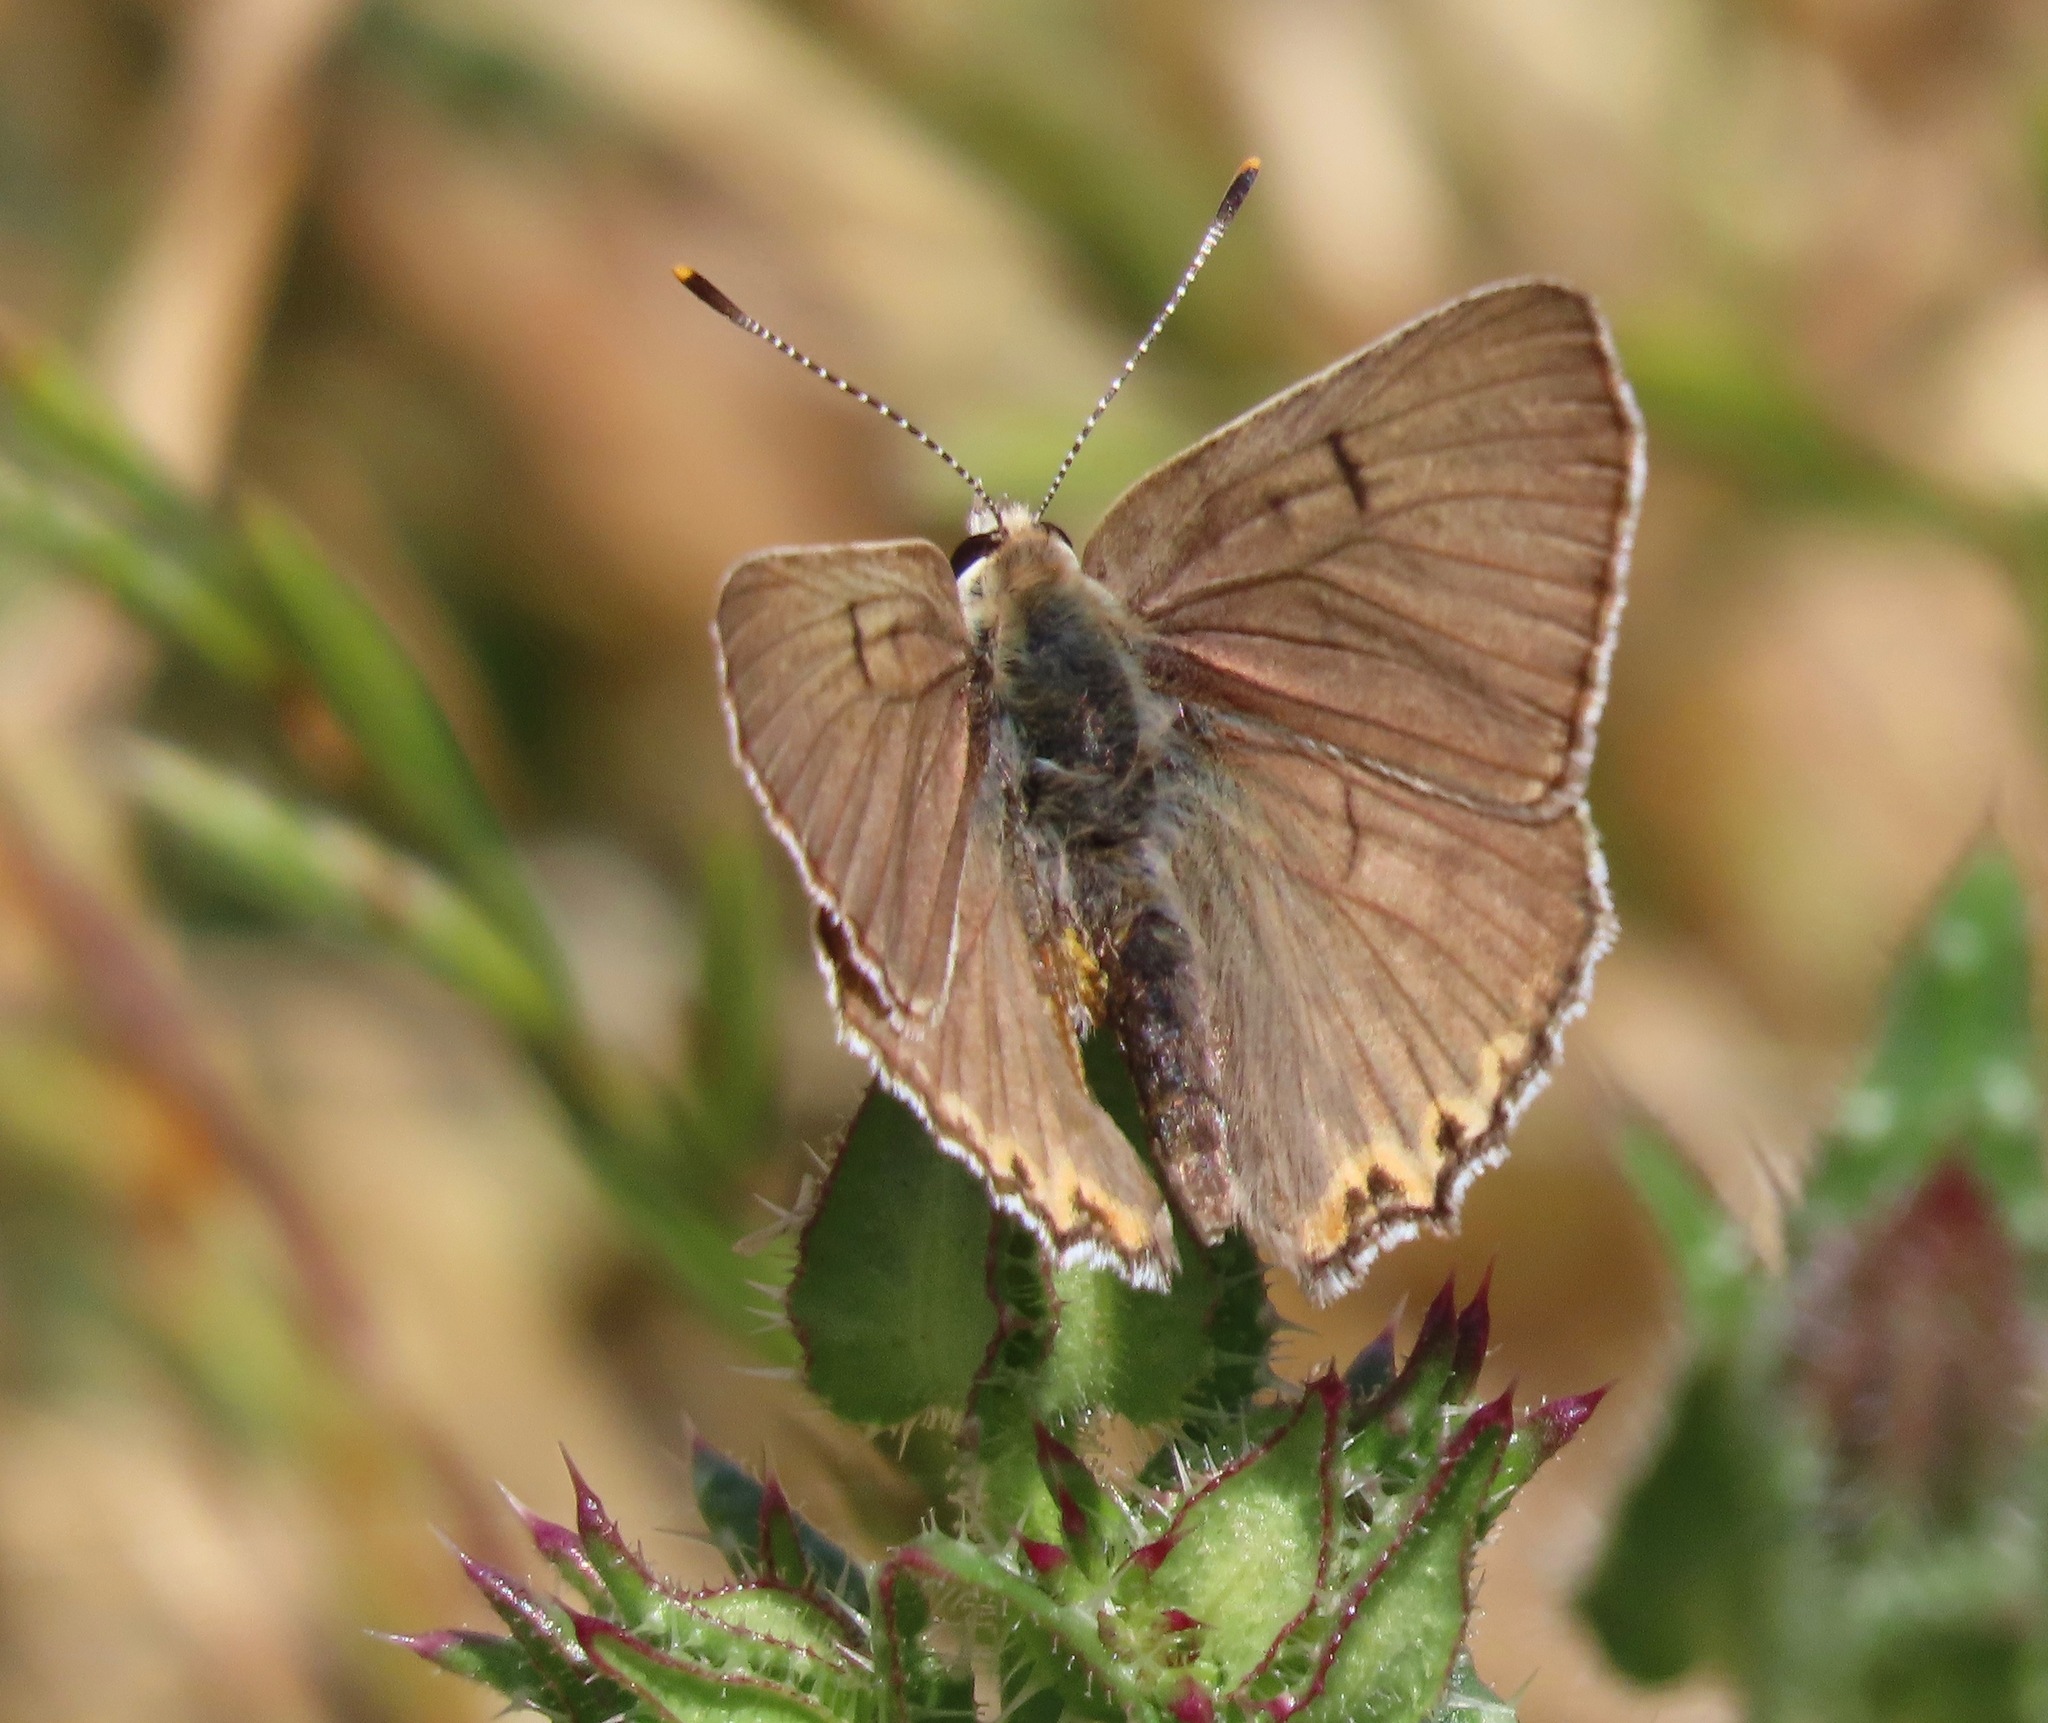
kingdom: Animalia
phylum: Arthropoda
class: Insecta
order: Lepidoptera
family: Lycaenidae
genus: Tharsalea
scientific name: Tharsalea xanthoides
